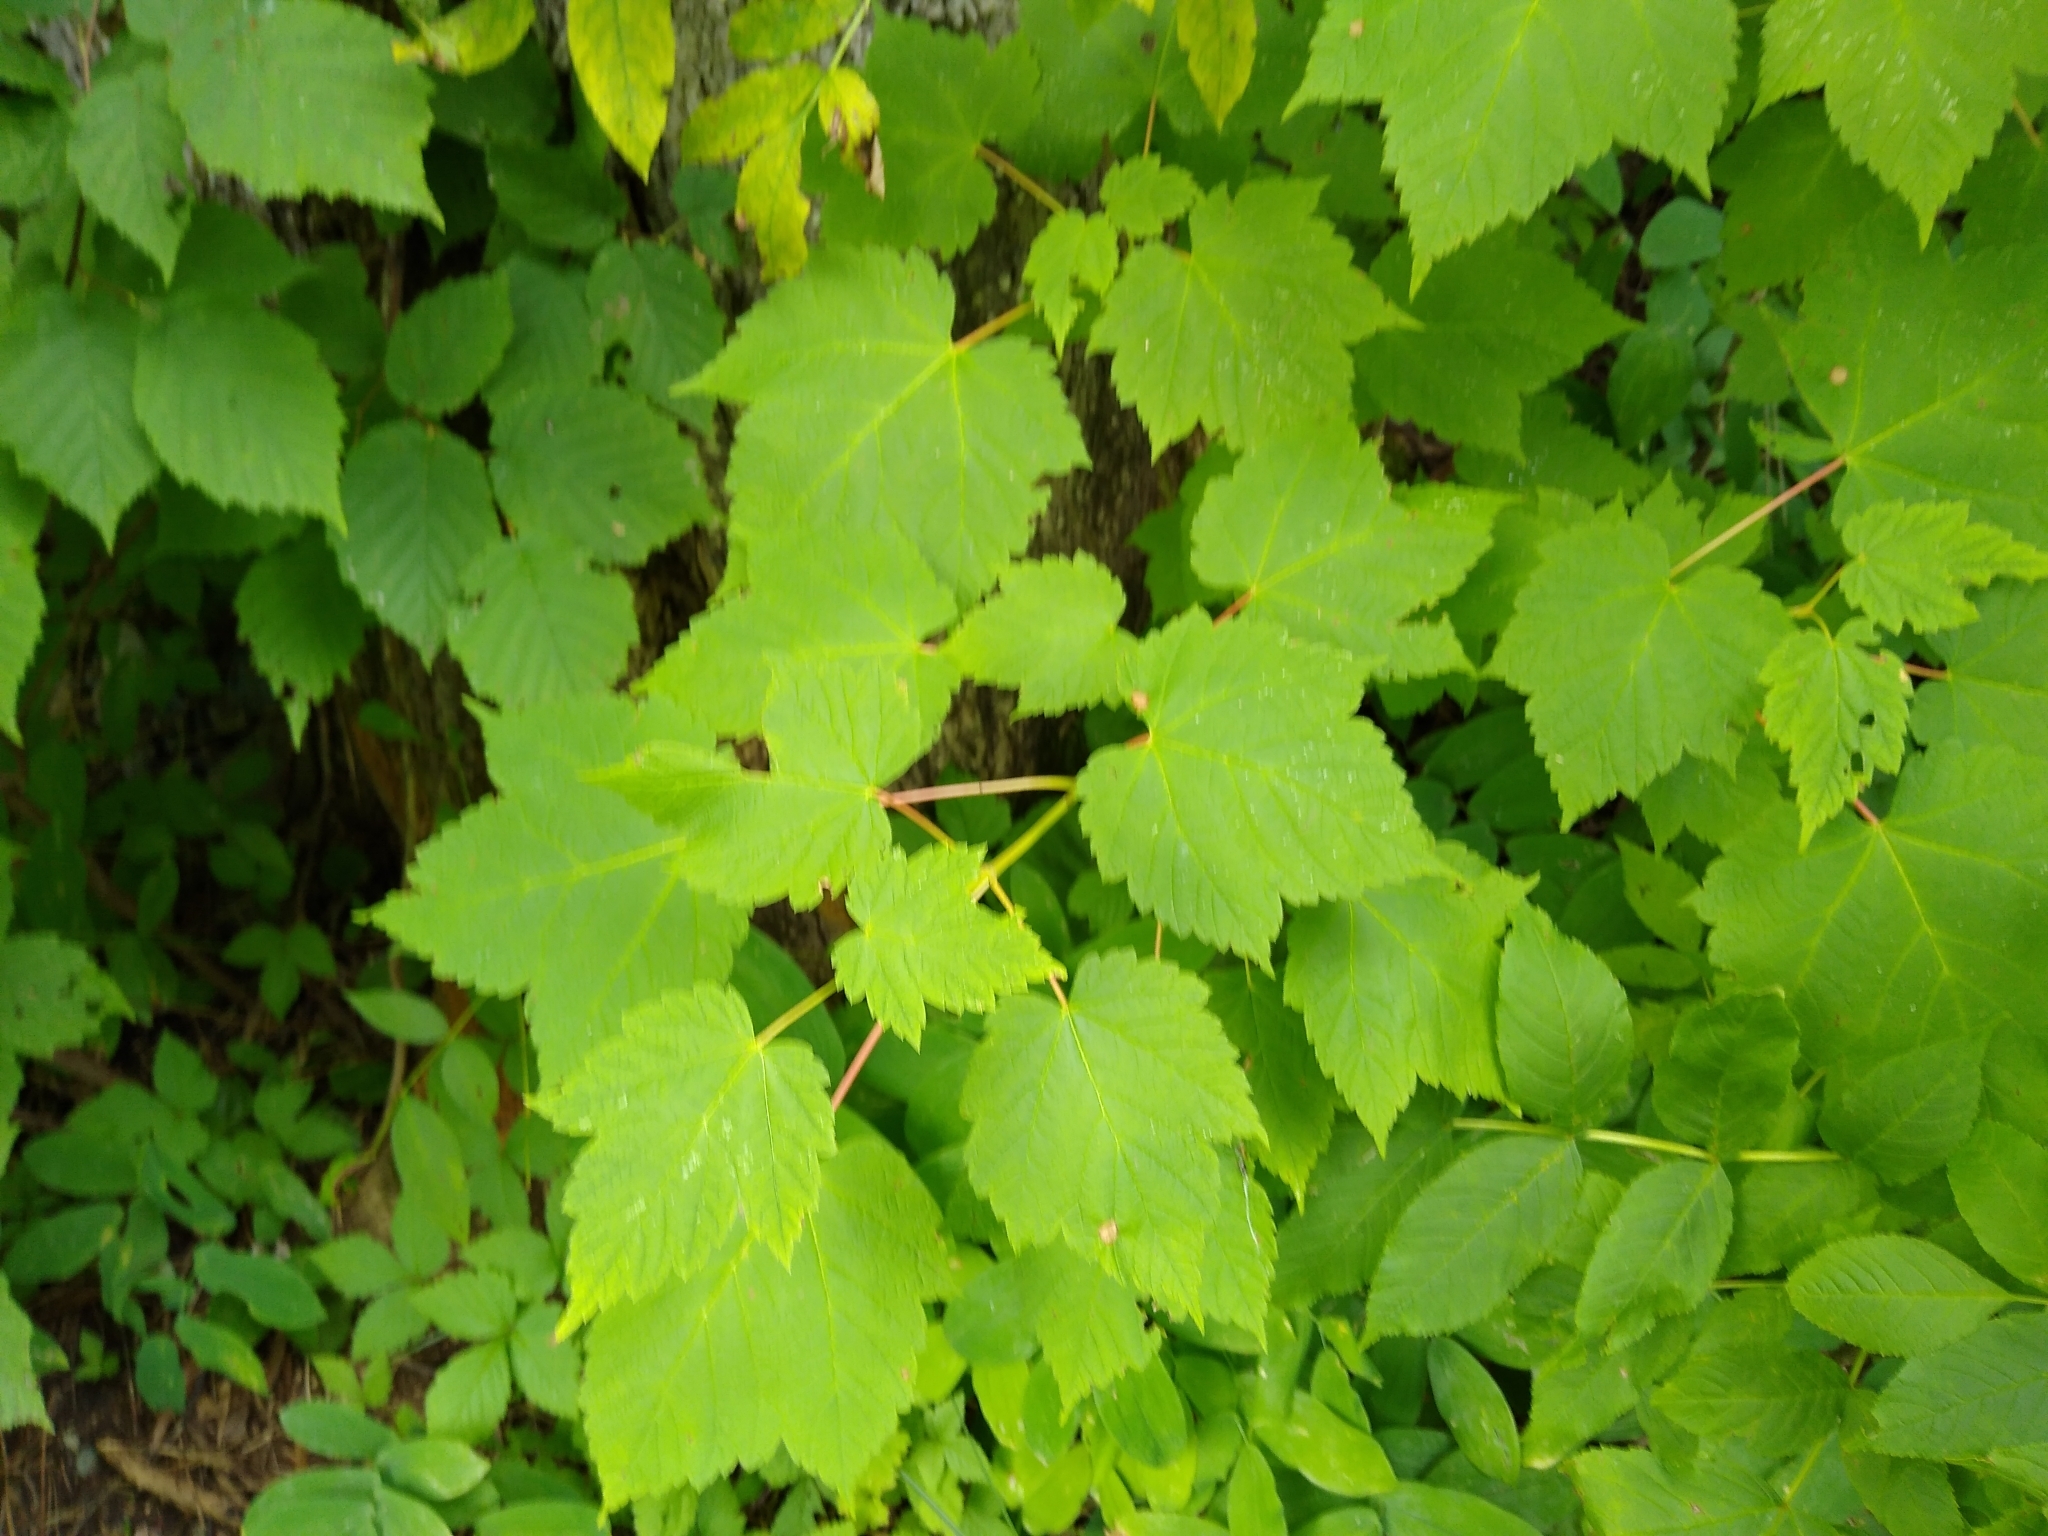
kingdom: Plantae
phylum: Tracheophyta
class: Magnoliopsida
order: Sapindales
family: Sapindaceae
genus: Acer
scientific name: Acer spicatum
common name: Mountain maple
